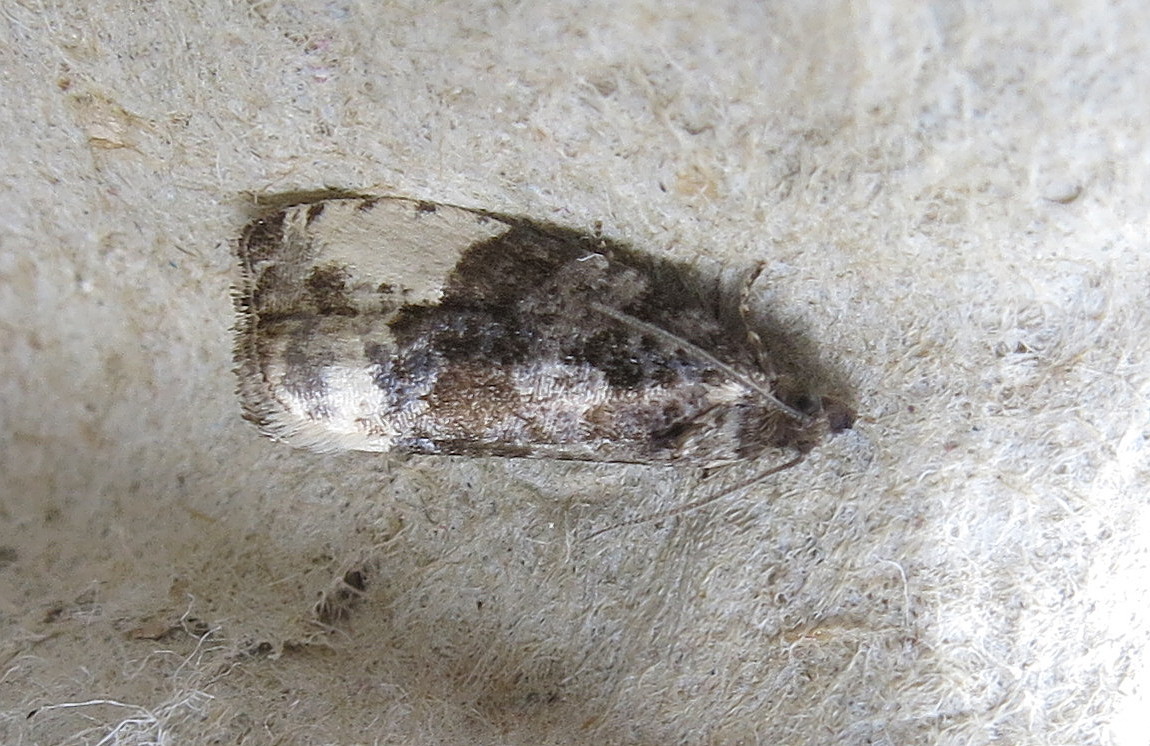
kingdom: Animalia
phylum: Arthropoda
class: Insecta
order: Lepidoptera
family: Tortricidae
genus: Hedya
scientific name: Hedya pruniana
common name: Plum tortrix
